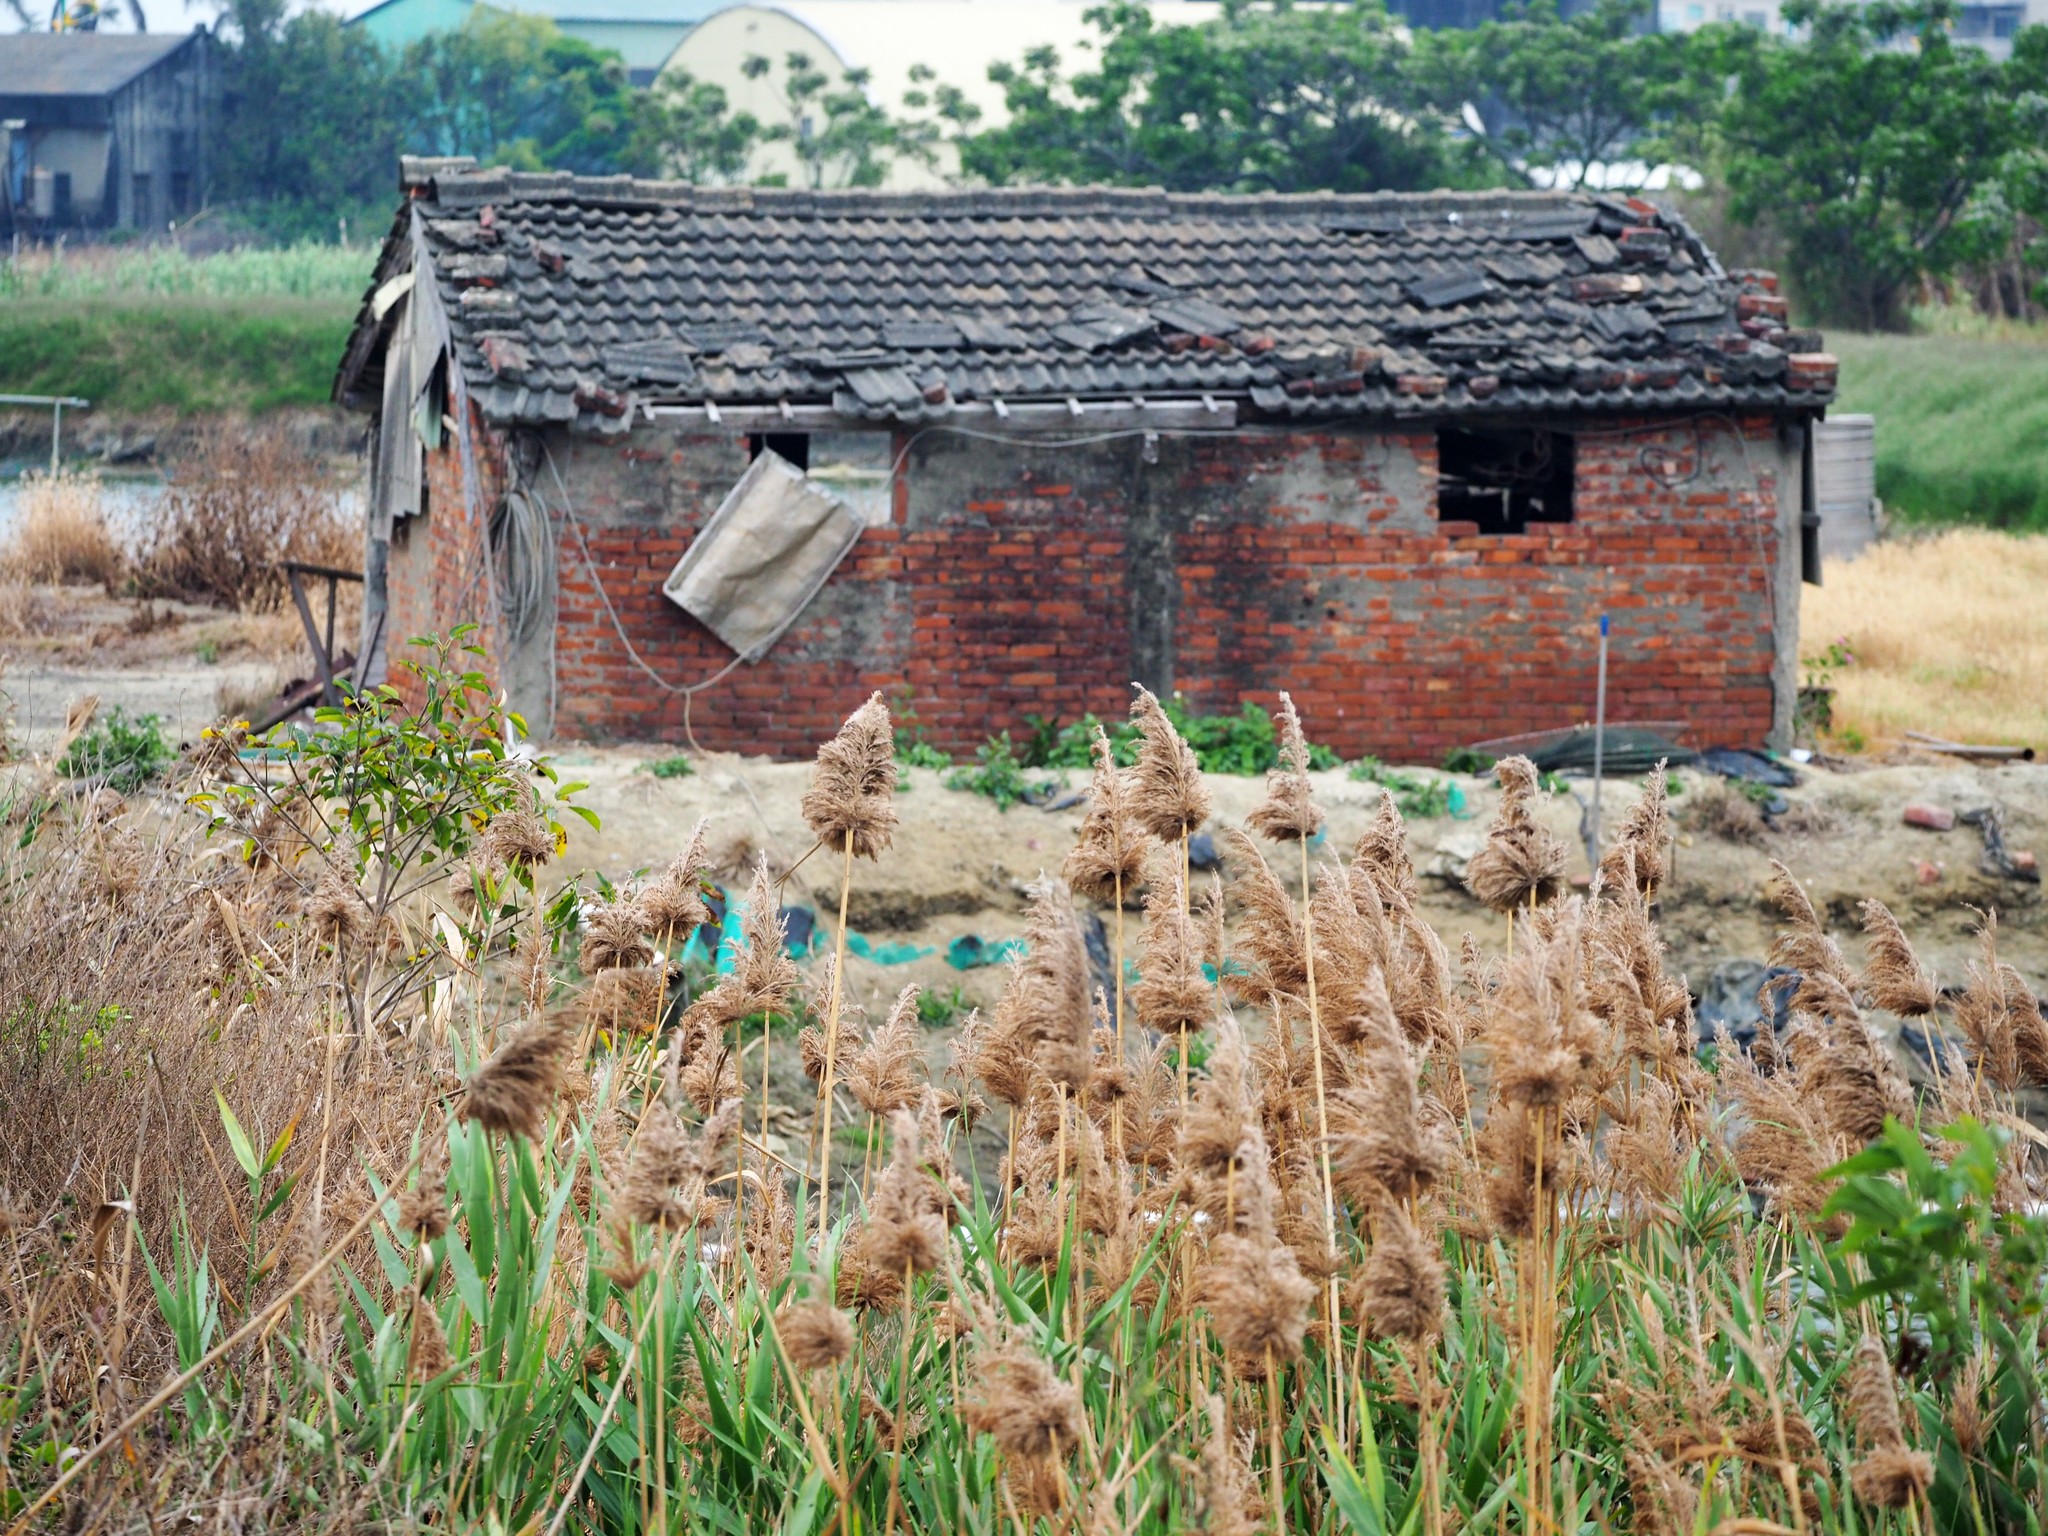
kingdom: Plantae
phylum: Tracheophyta
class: Liliopsida
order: Poales
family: Poaceae
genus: Phragmites
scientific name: Phragmites australis
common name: Common reed
